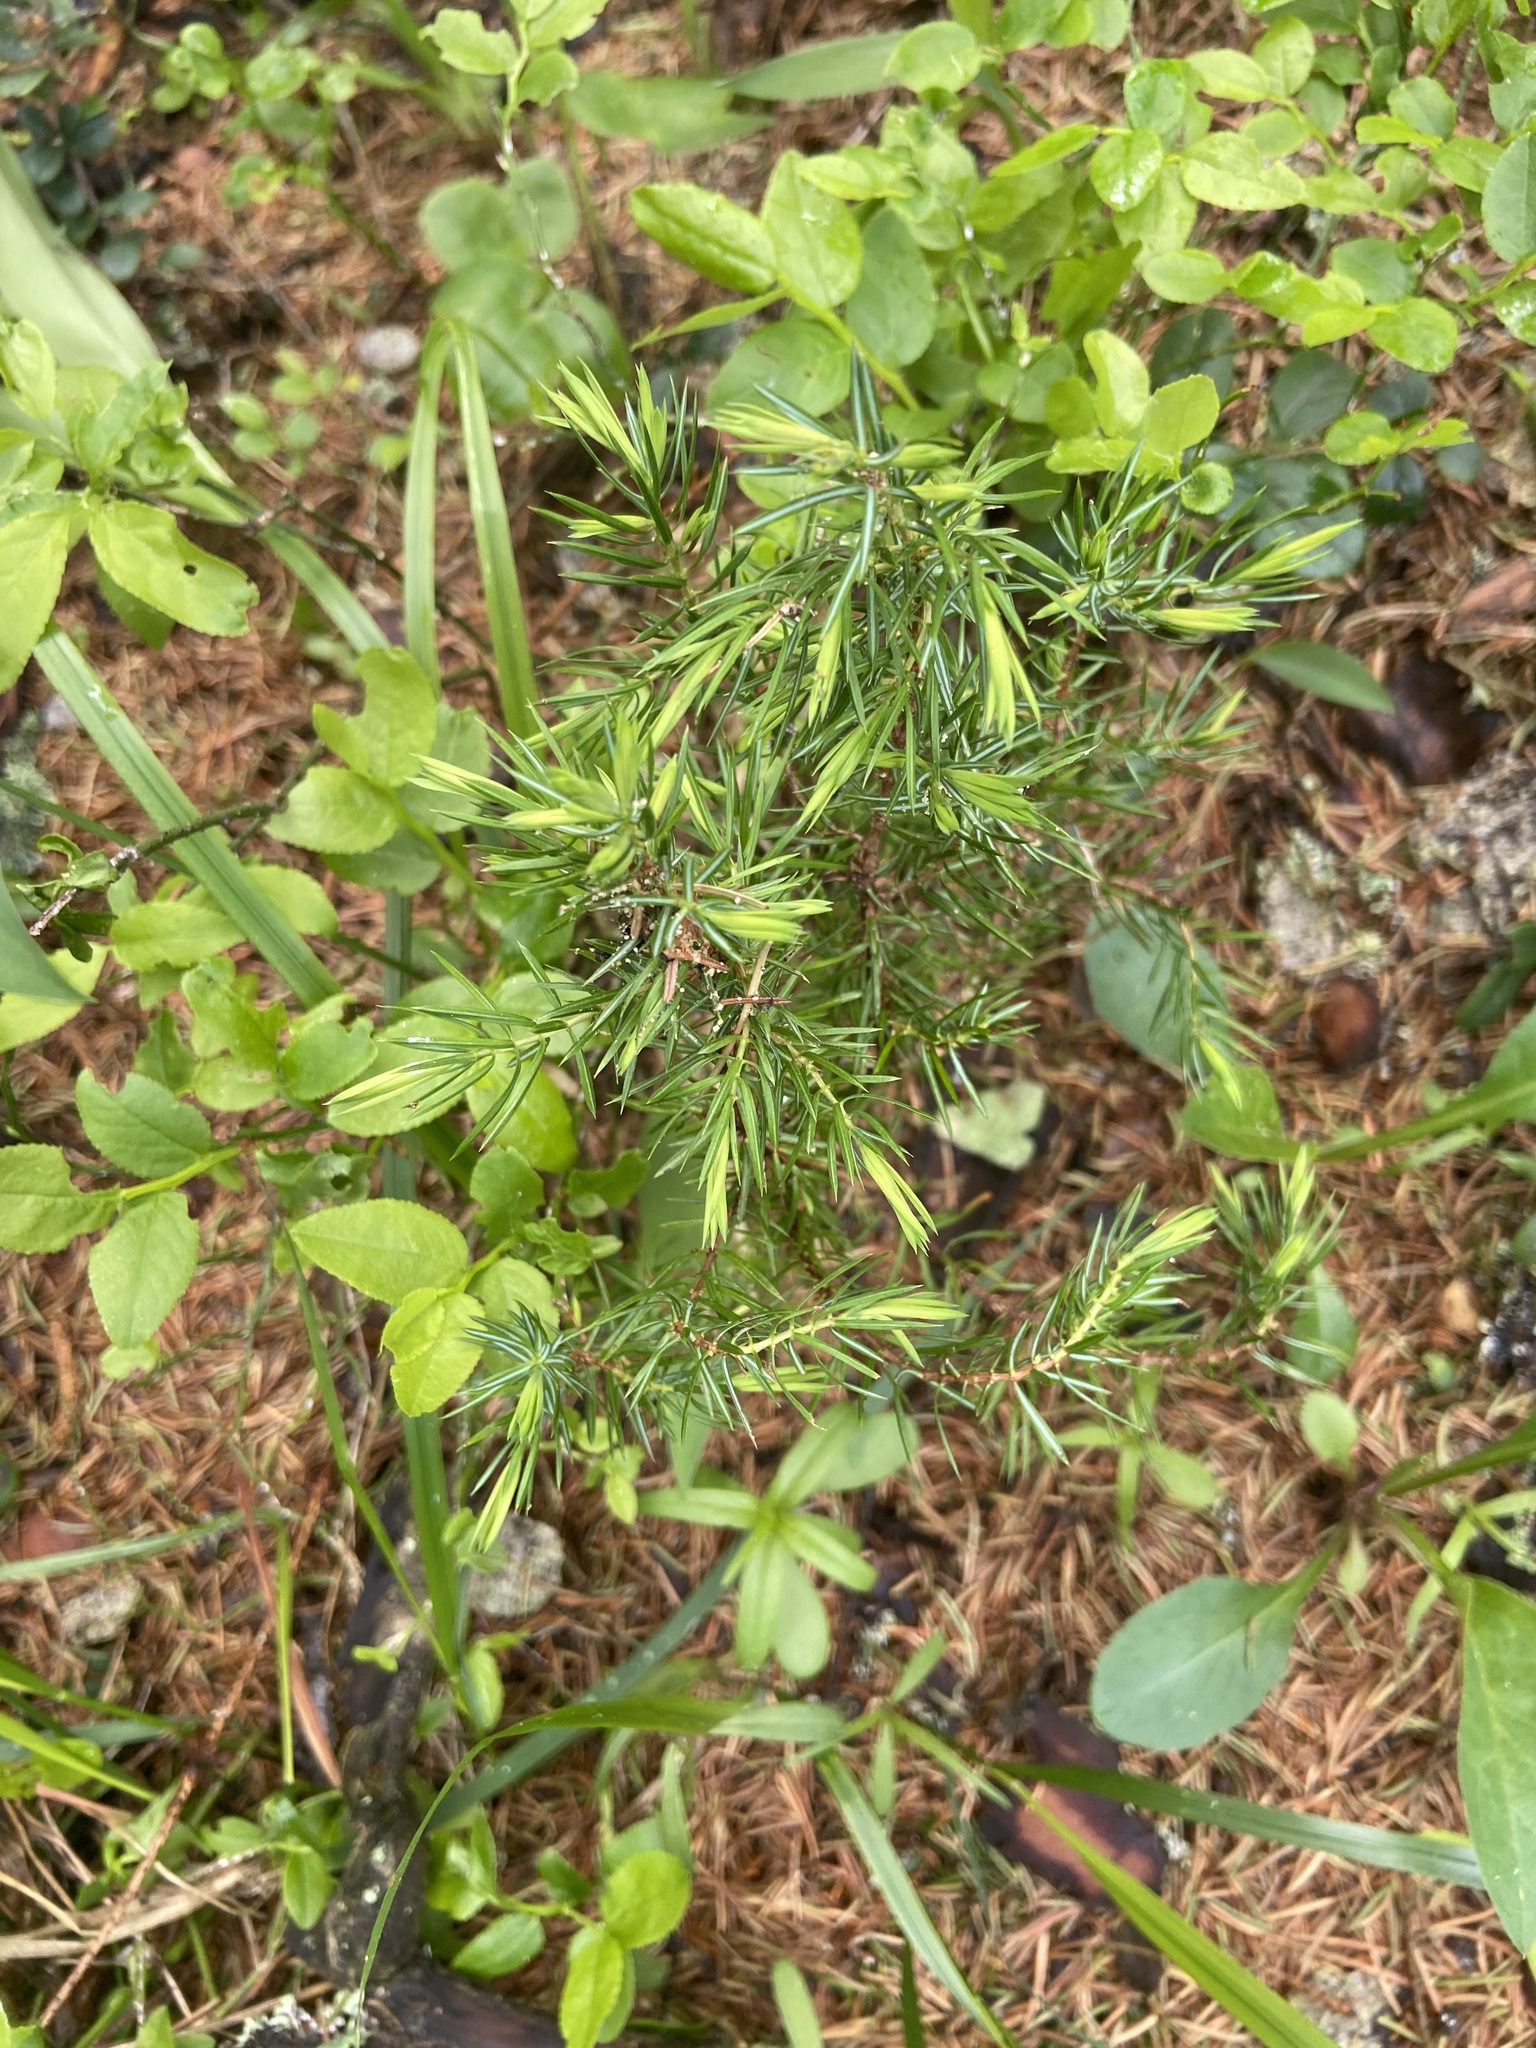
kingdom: Plantae
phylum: Tracheophyta
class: Pinopsida
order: Pinales
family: Cupressaceae
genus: Juniperus
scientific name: Juniperus communis
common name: Common juniper
